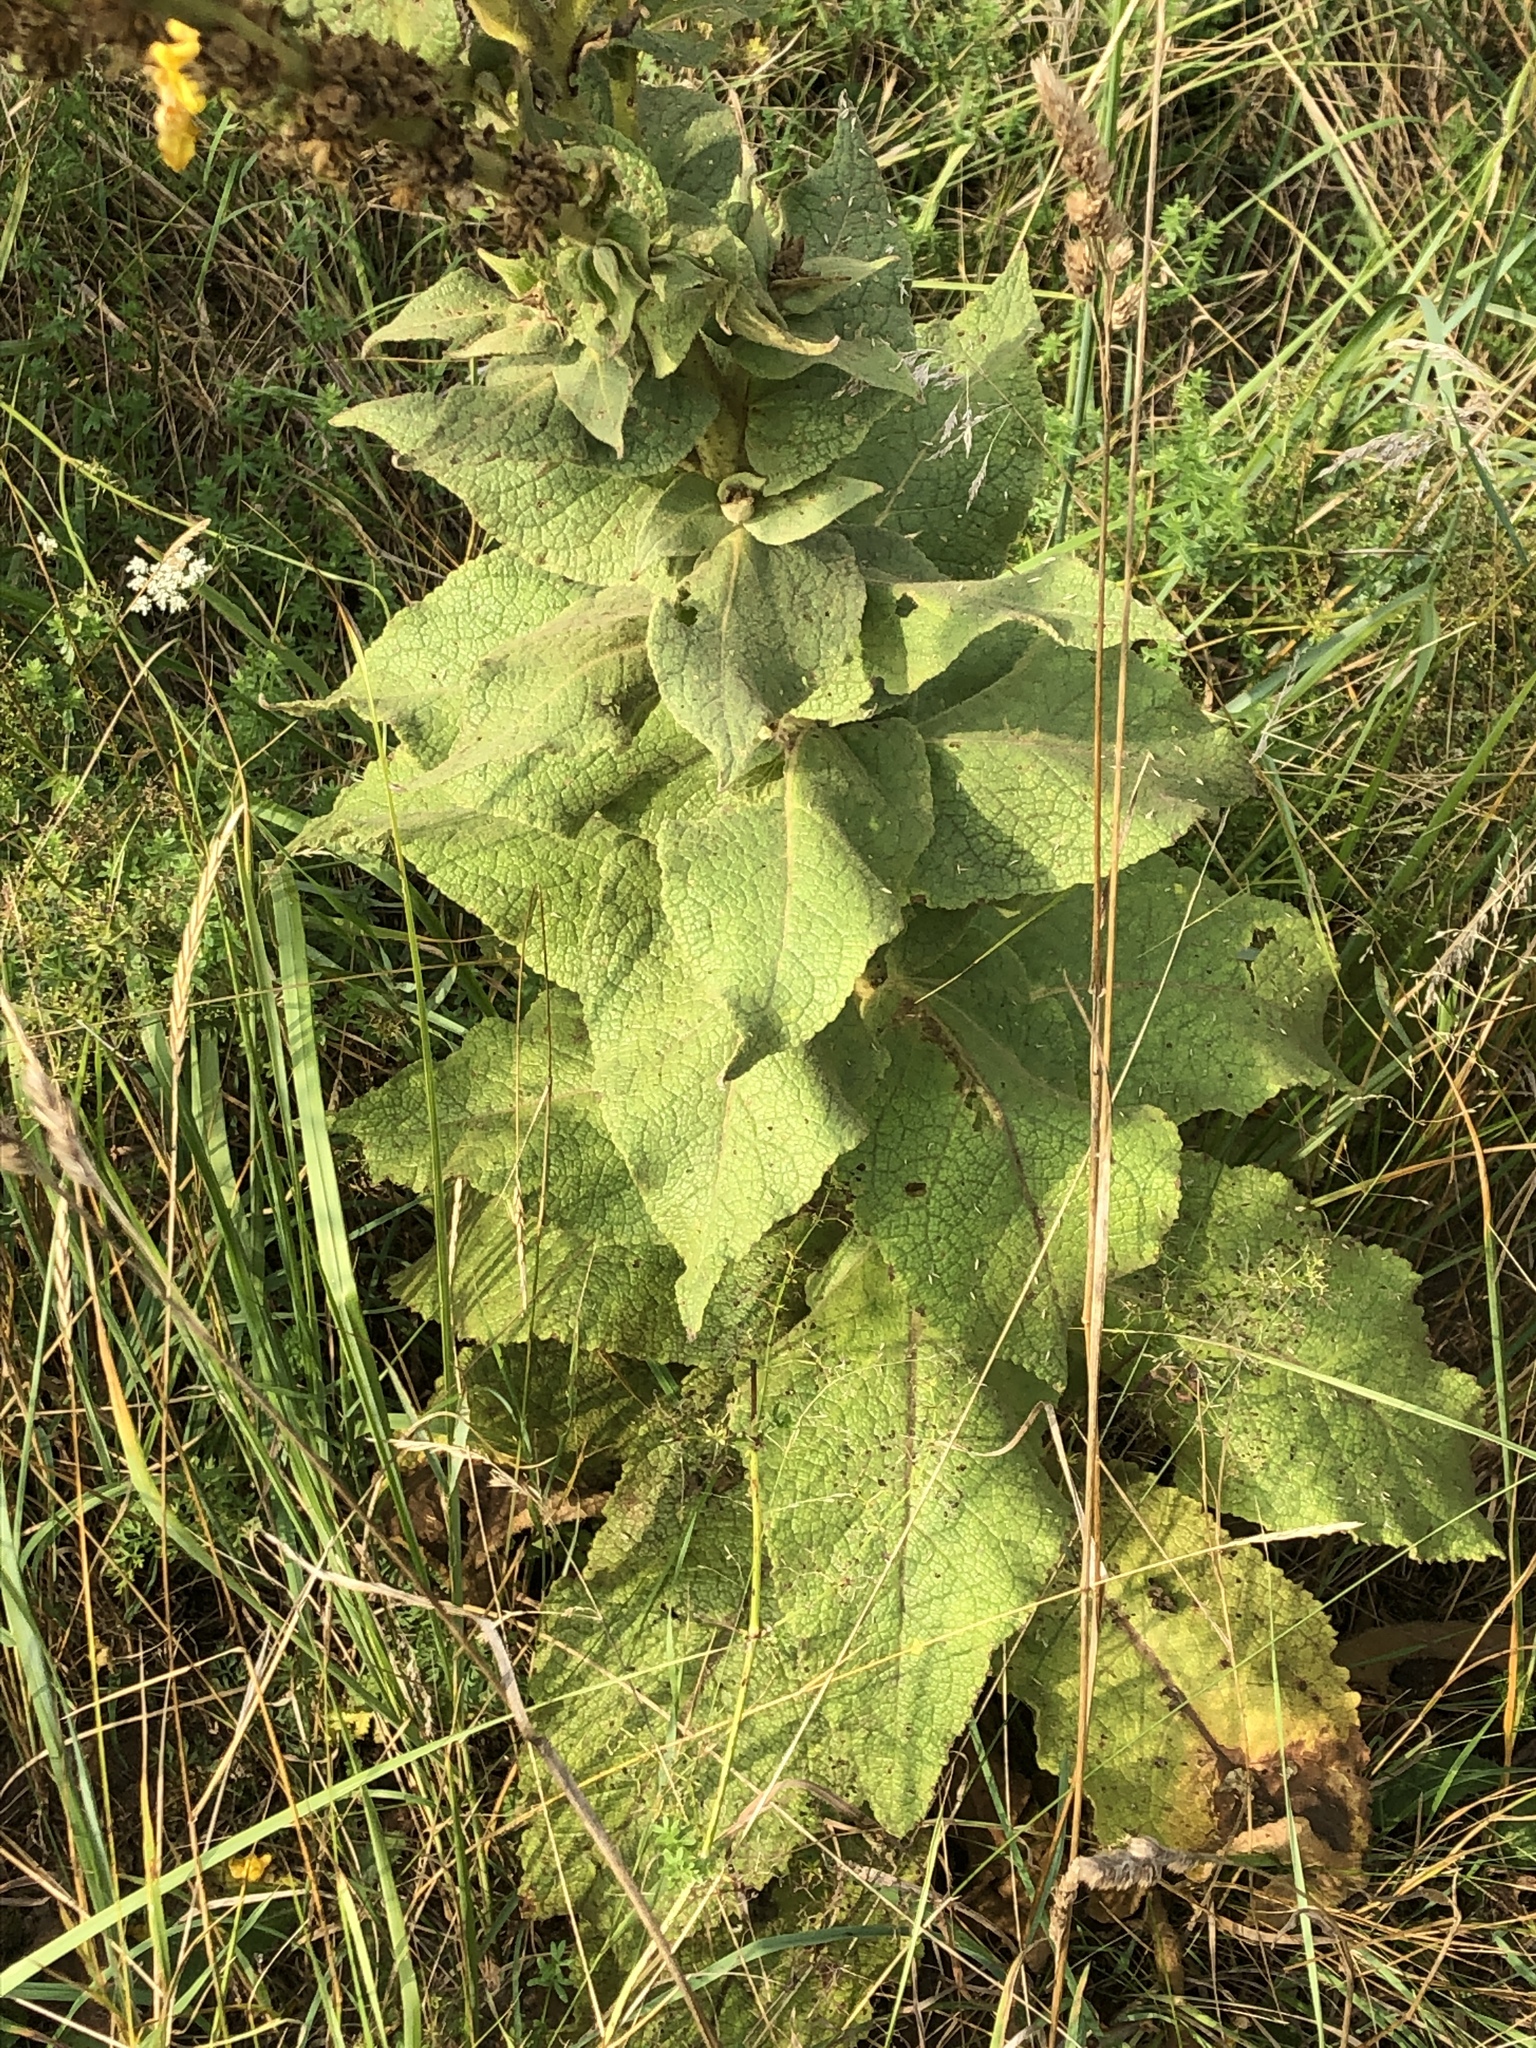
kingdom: Plantae
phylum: Tracheophyta
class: Magnoliopsida
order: Lamiales
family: Scrophulariaceae
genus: Verbascum
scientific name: Verbascum phlomoides
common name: Orange mullein
